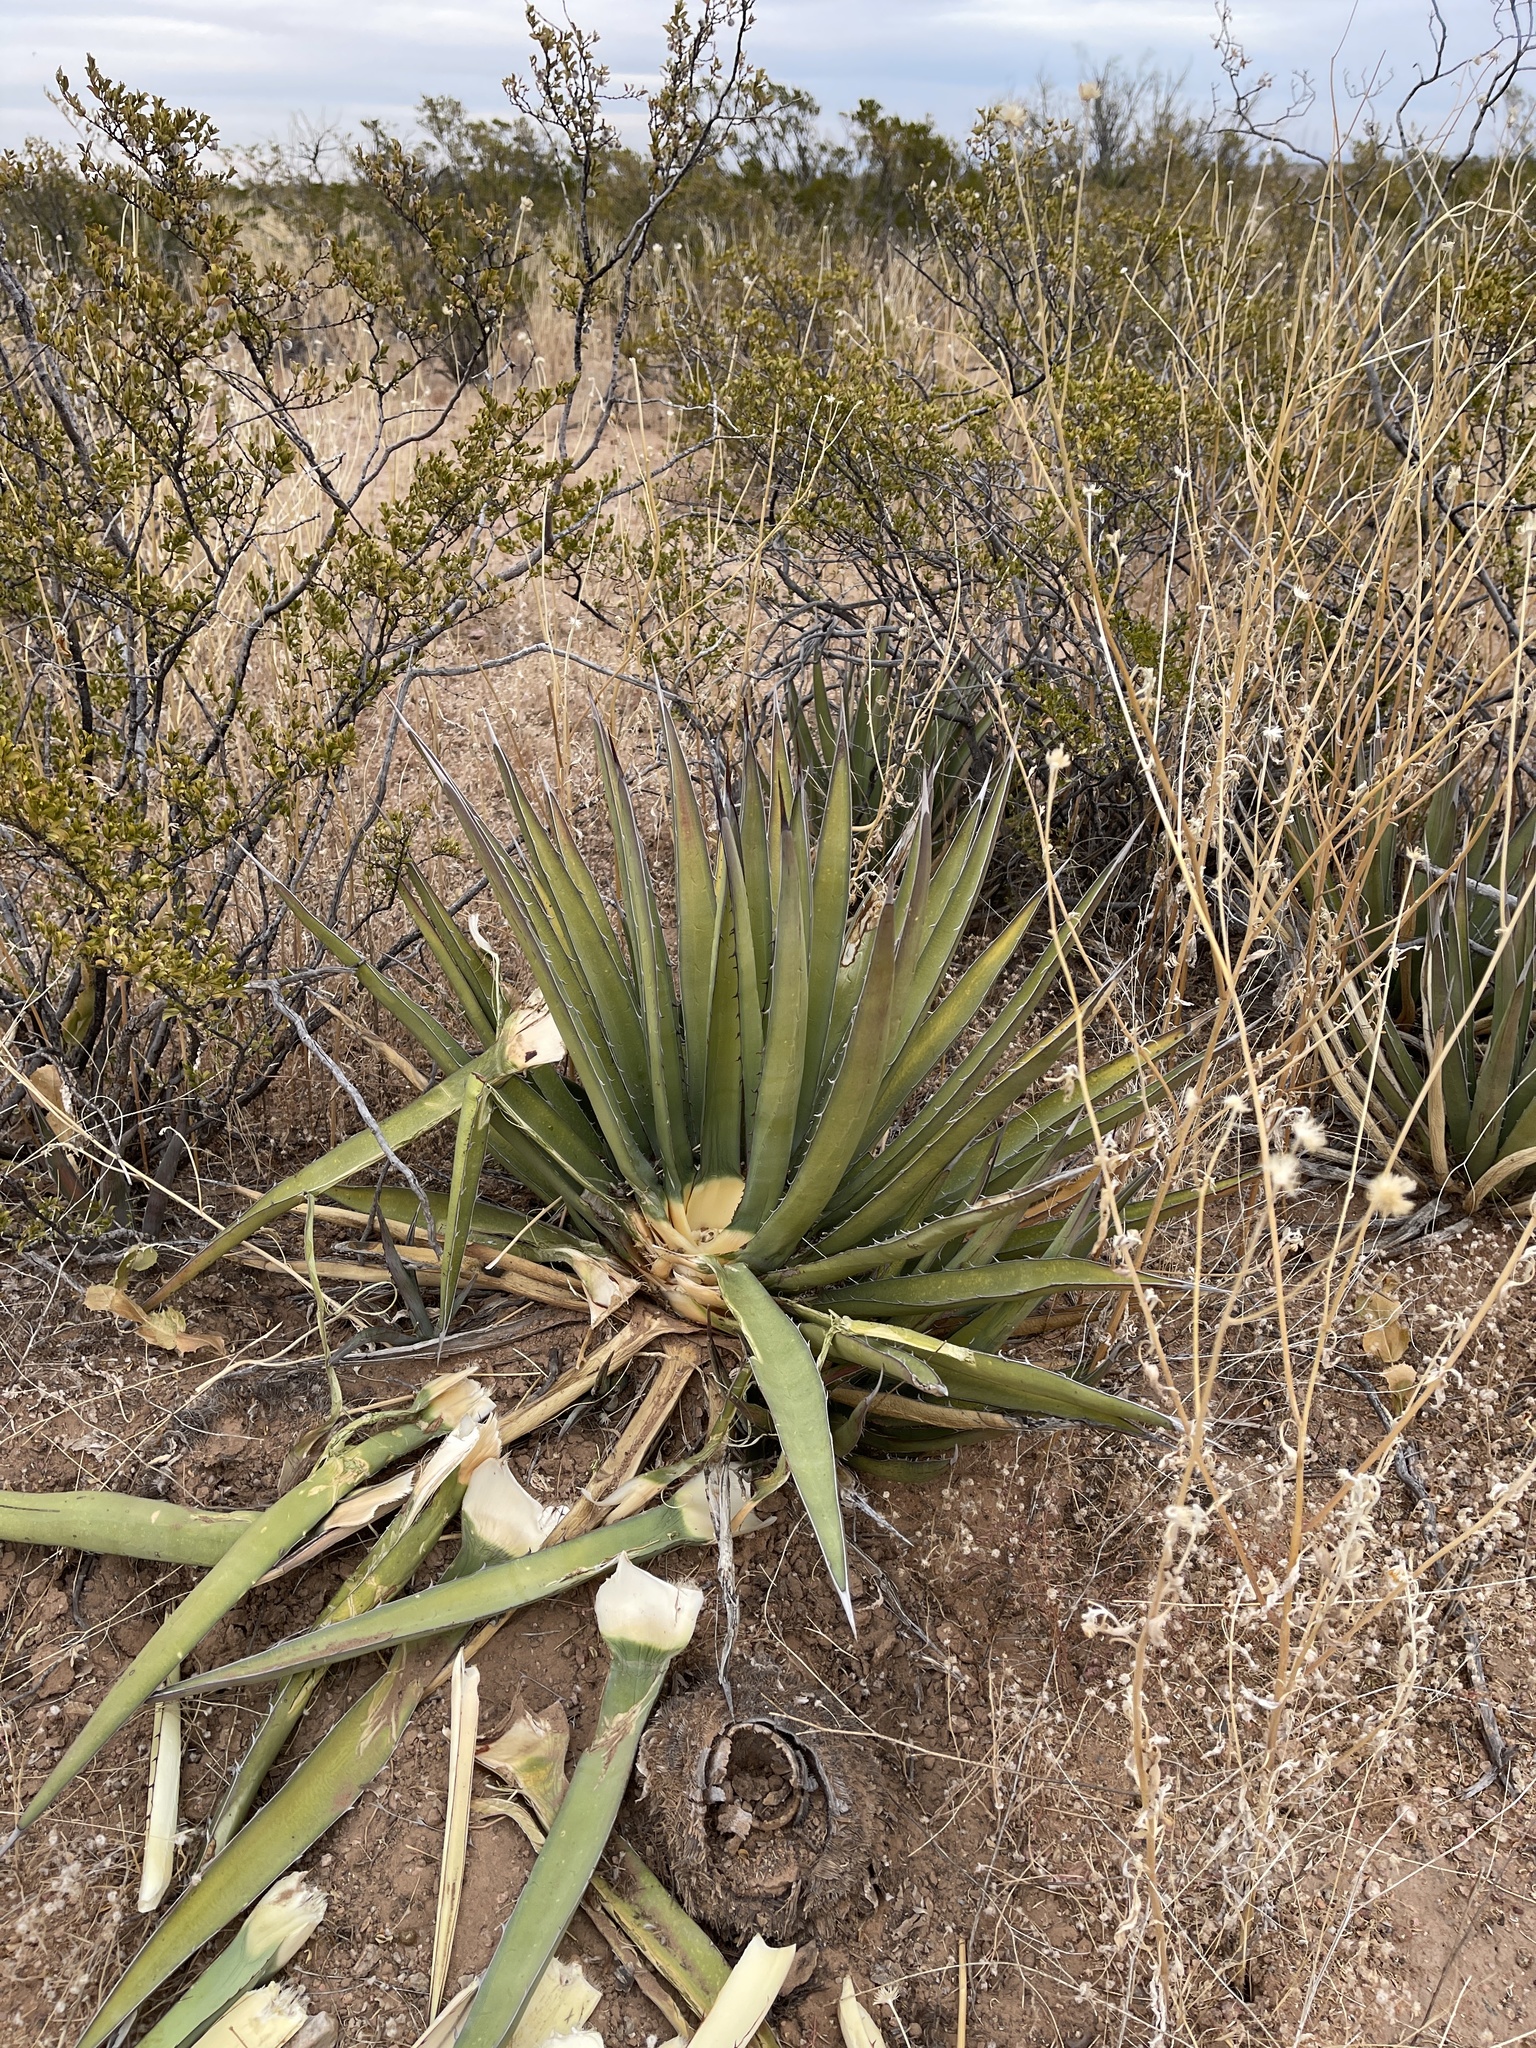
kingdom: Plantae
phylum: Tracheophyta
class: Liliopsida
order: Asparagales
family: Asparagaceae
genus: Agave
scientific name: Agave lechuguilla
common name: Lecheguilla agave
